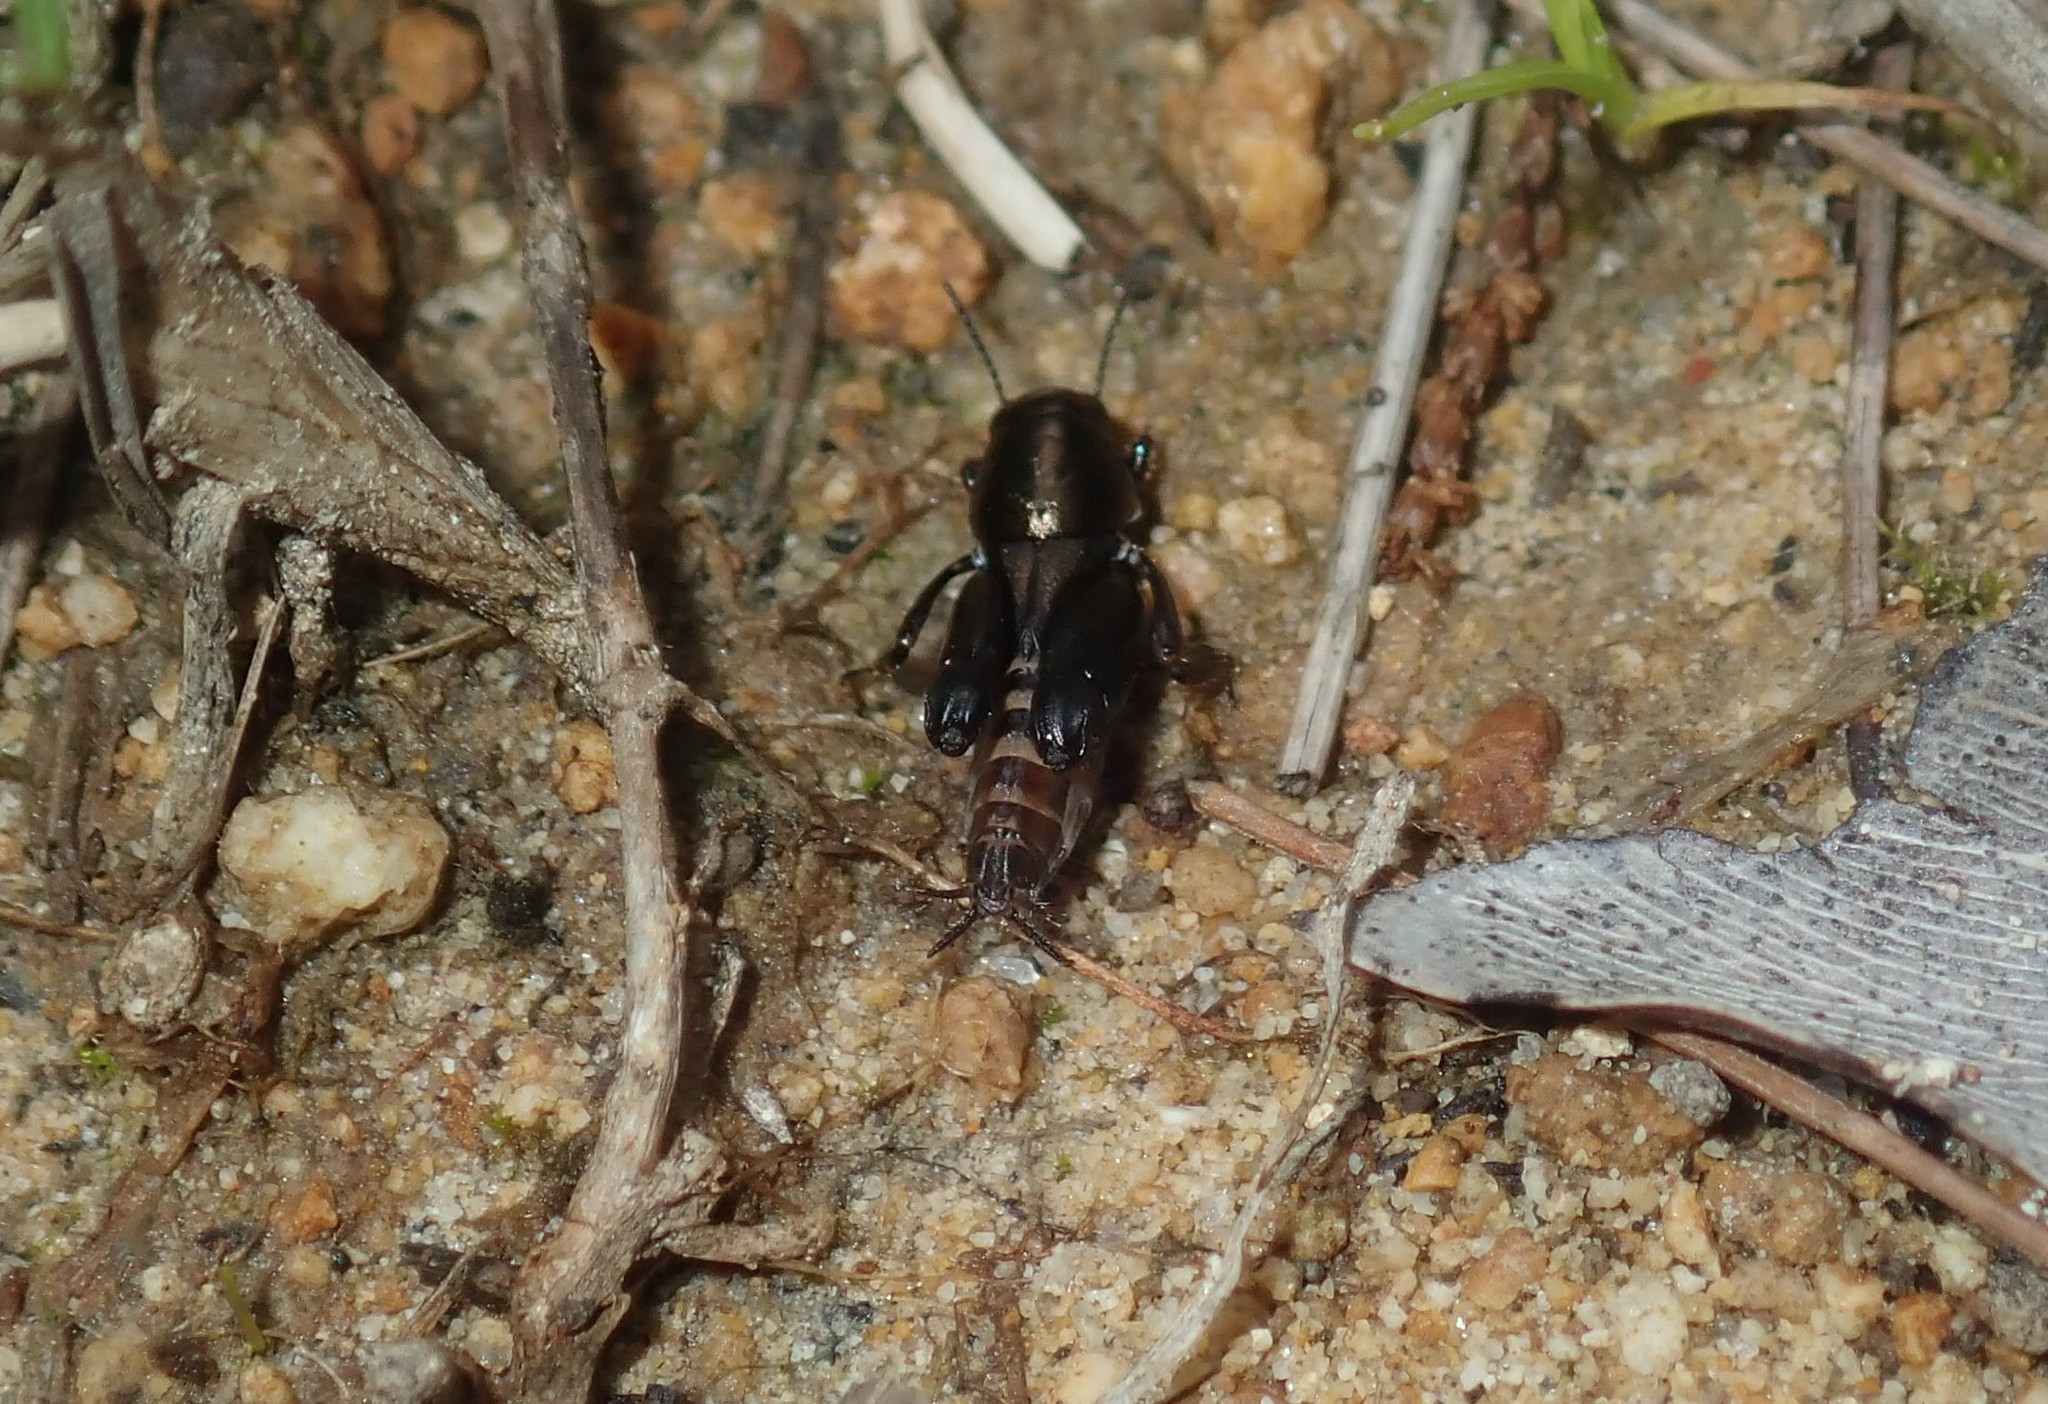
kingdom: Animalia
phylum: Arthropoda
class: Insecta
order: Orthoptera
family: Tridactylidae
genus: Xya
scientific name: Xya muta
